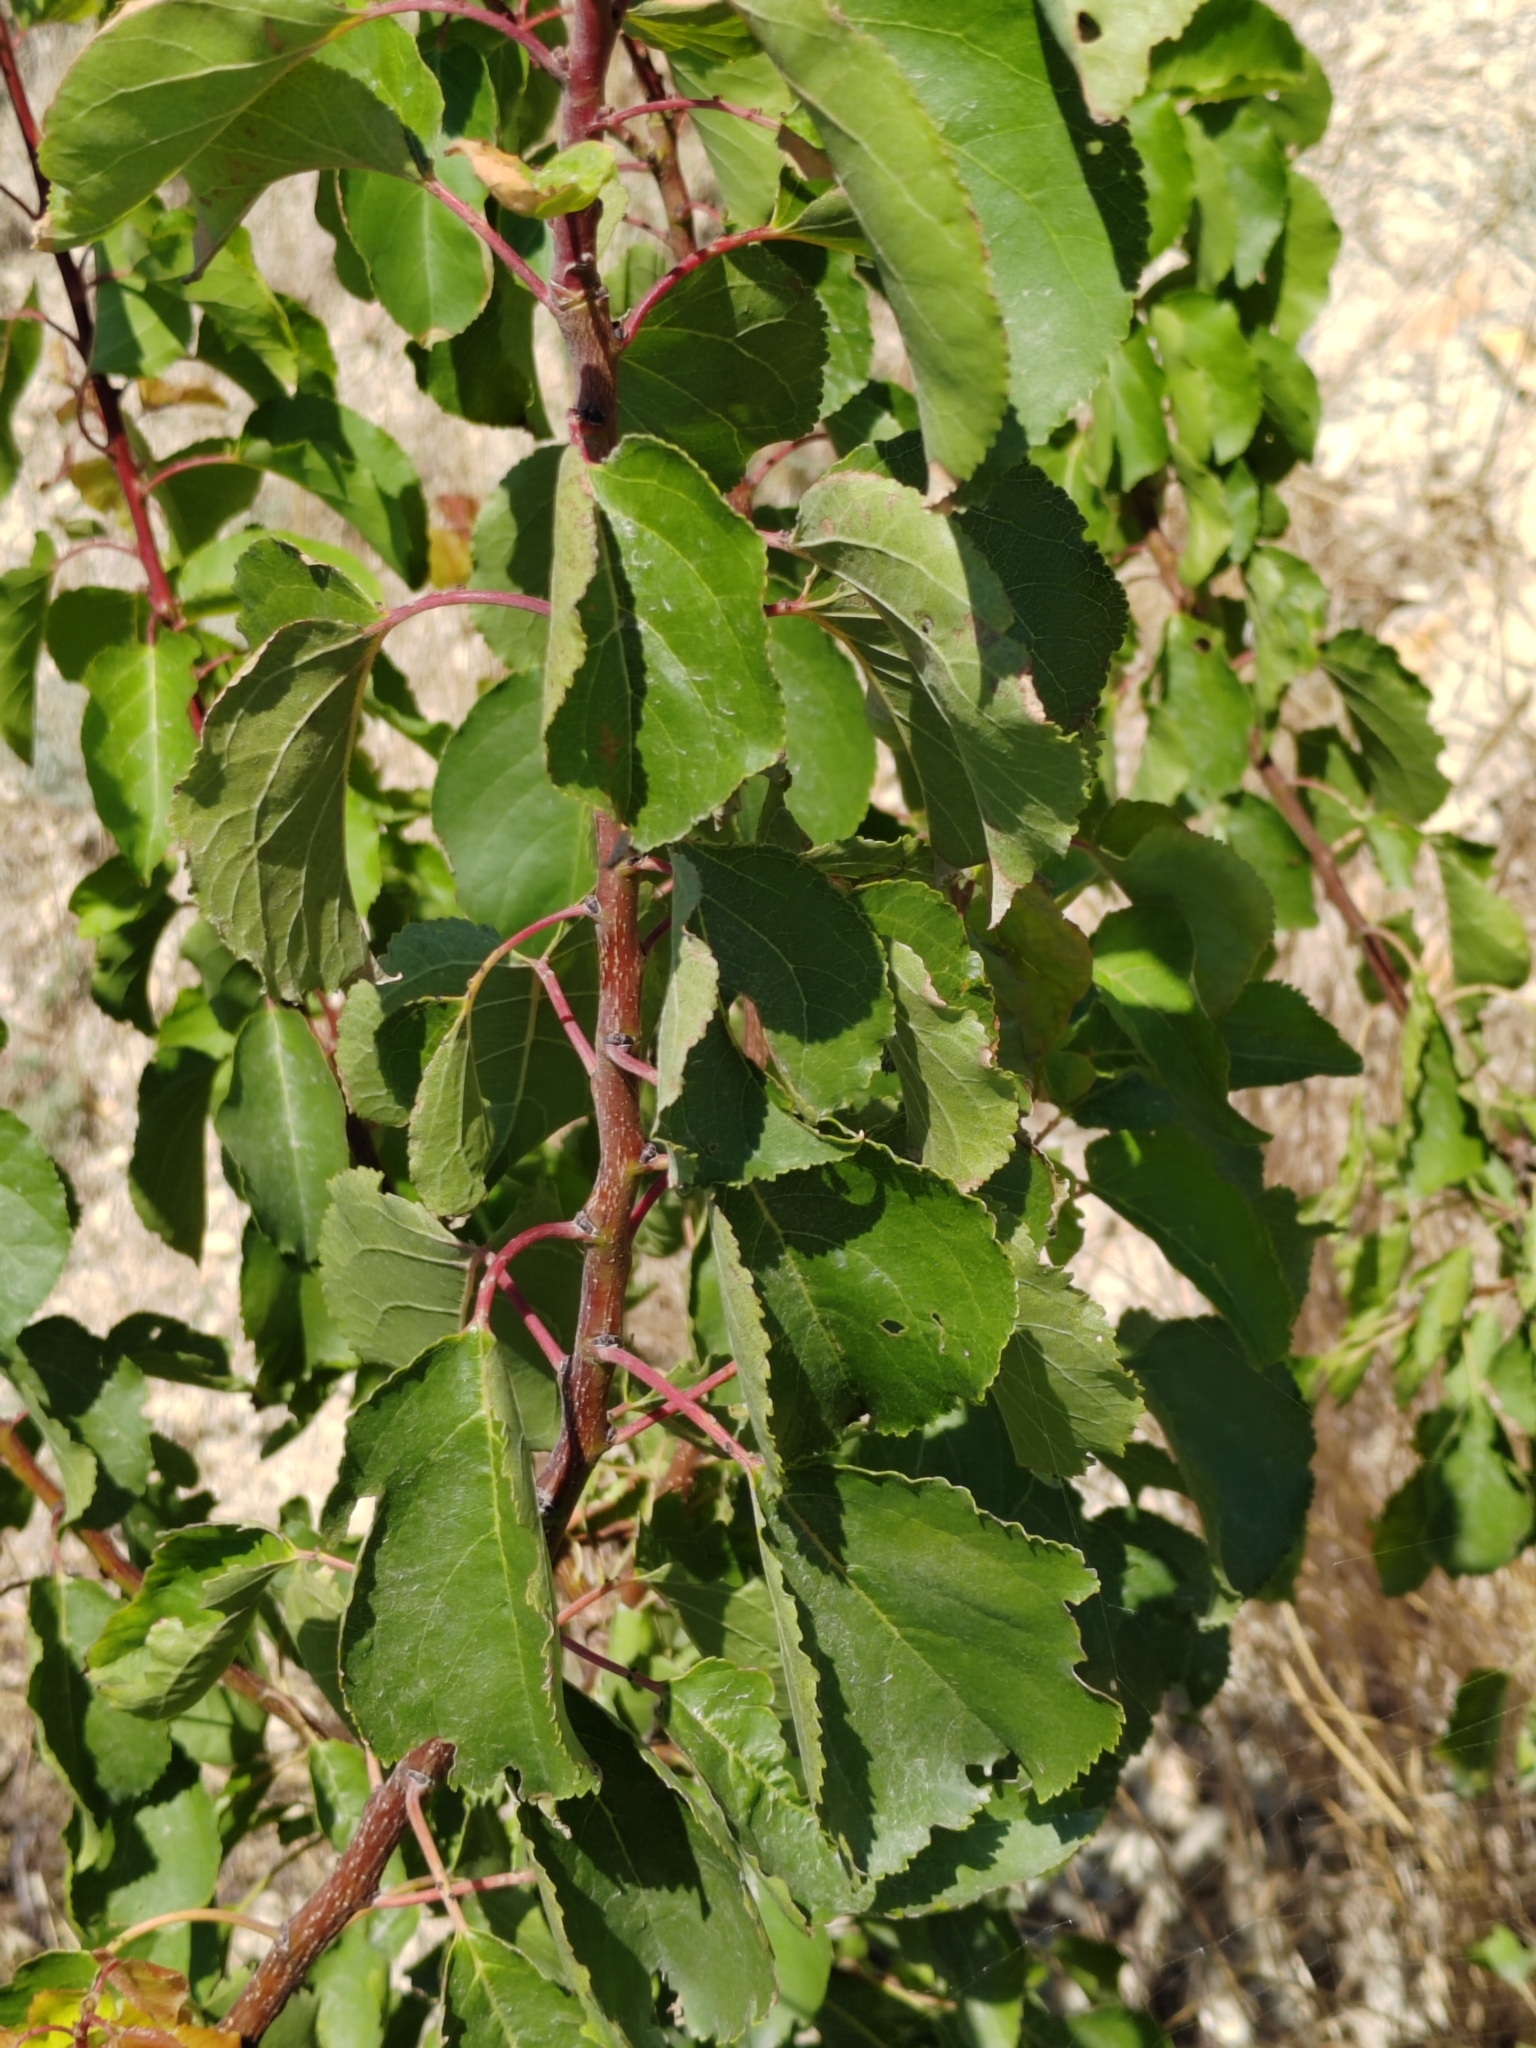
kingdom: Plantae
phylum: Tracheophyta
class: Magnoliopsida
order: Rosales
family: Rosaceae
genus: Prunus
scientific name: Prunus armeniaca
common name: Apricot
